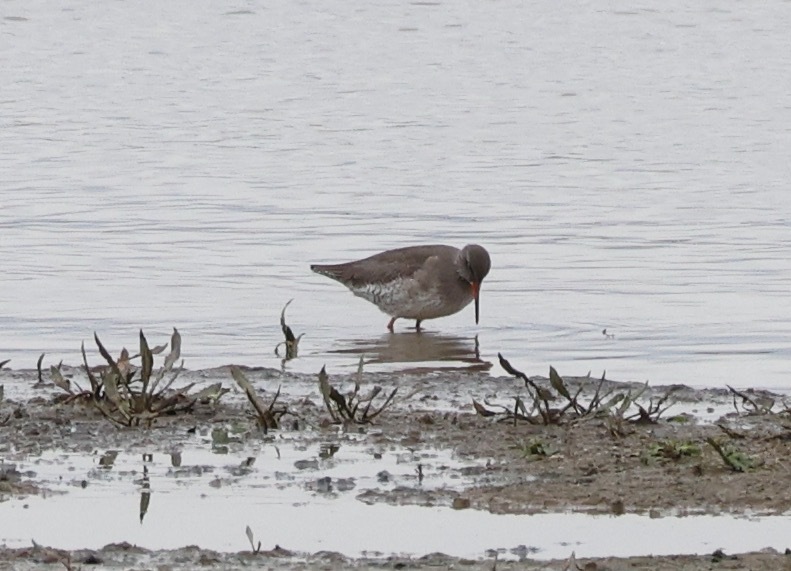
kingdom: Animalia
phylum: Chordata
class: Aves
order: Charadriiformes
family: Scolopacidae
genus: Tringa
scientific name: Tringa totanus
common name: Common redshank
